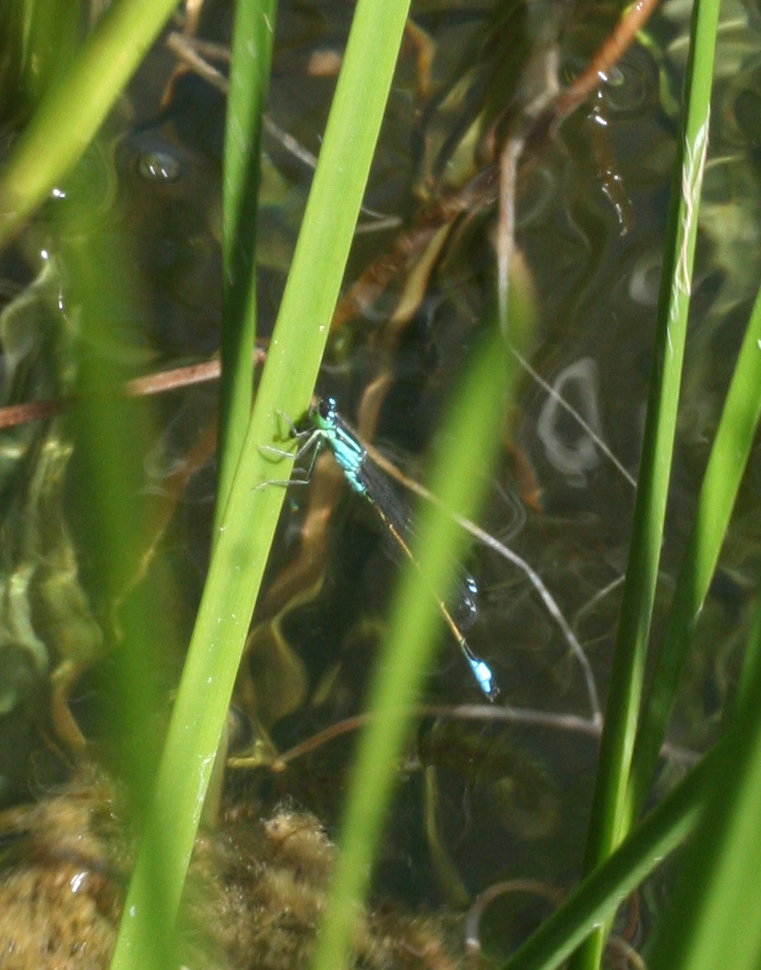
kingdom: Animalia
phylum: Arthropoda
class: Insecta
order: Odonata
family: Coenagrionidae
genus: Ischnura
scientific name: Ischnura elegans
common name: Blue-tailed damselfly
